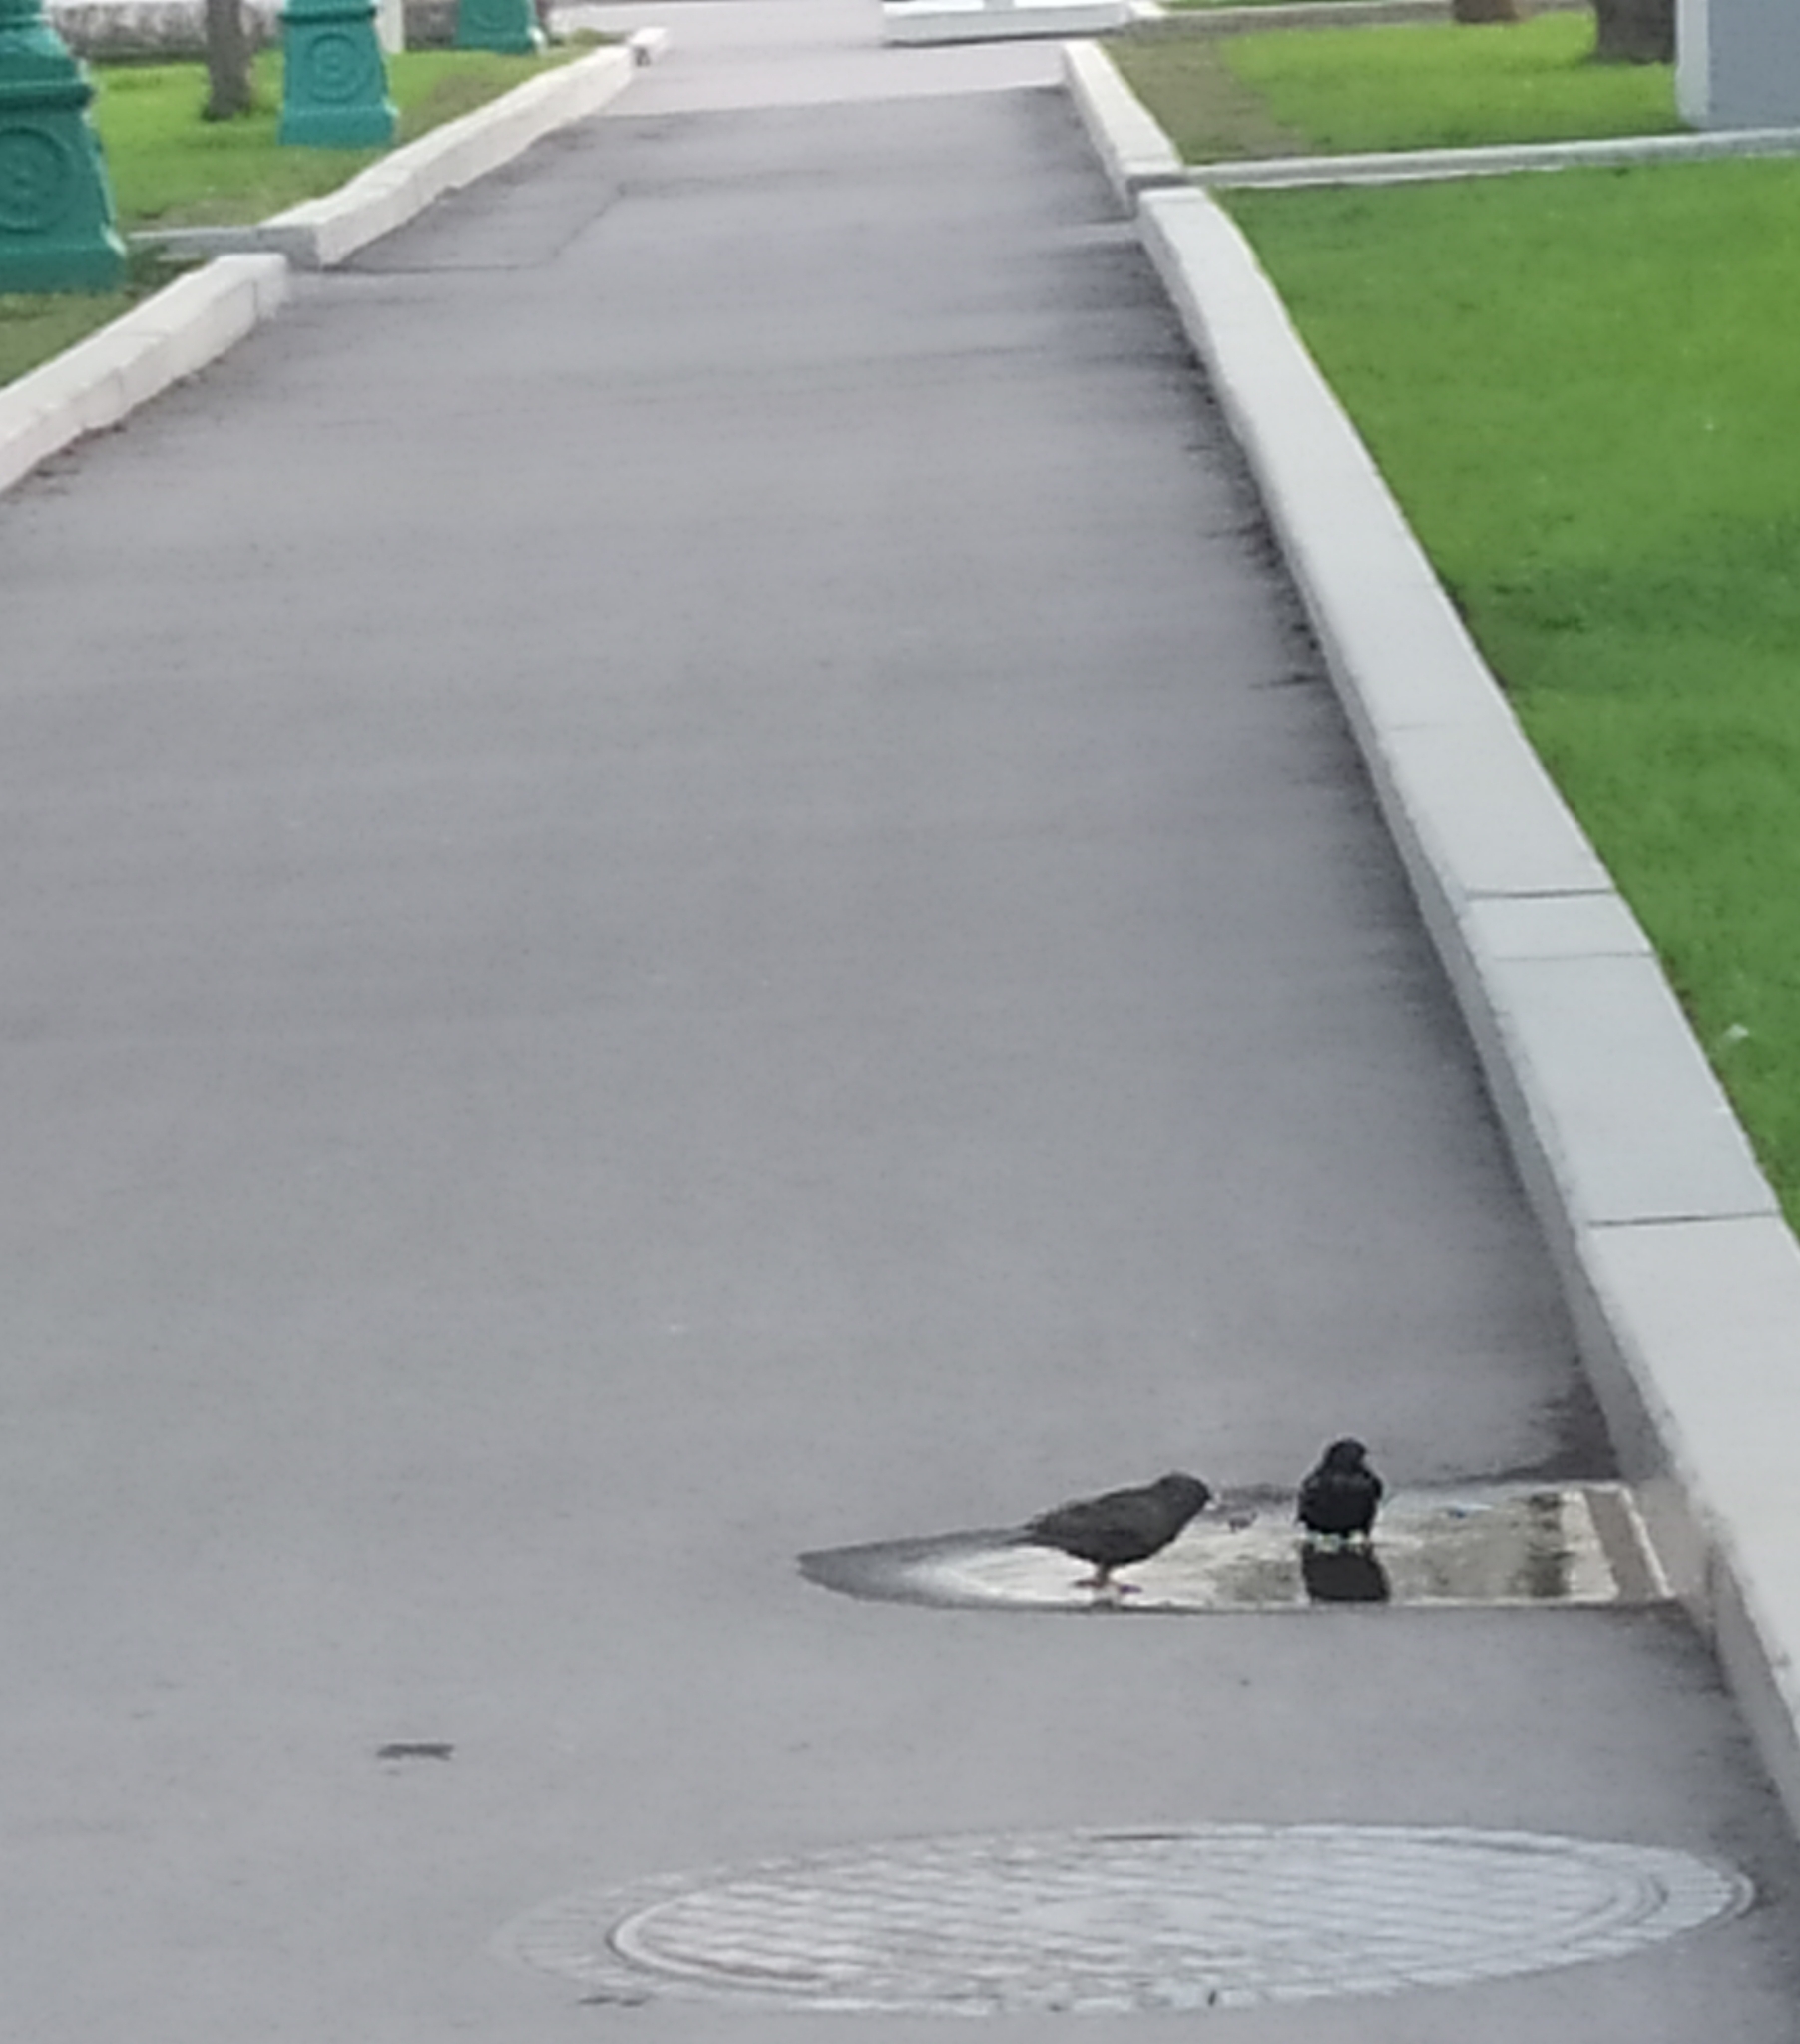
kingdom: Animalia
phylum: Chordata
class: Aves
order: Passeriformes
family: Sturnidae
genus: Sturnus
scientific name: Sturnus vulgaris
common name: Common starling
